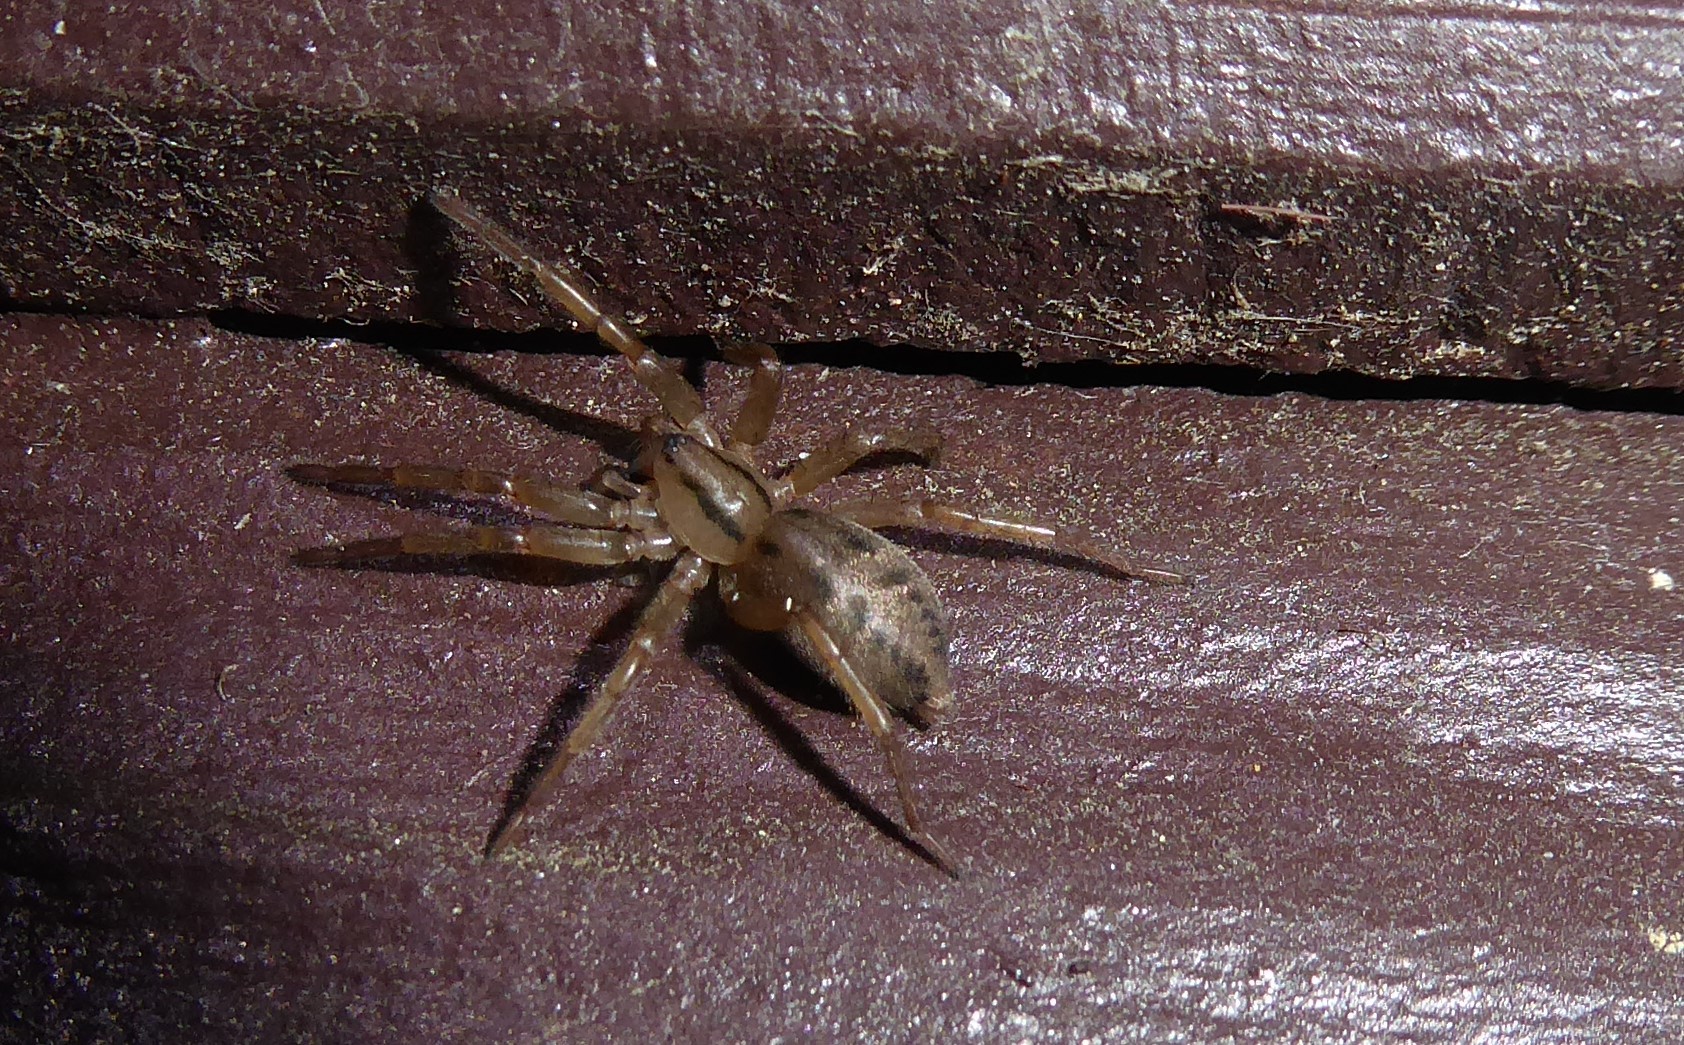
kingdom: Animalia
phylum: Arthropoda
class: Arachnida
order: Araneae
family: Gnaphosidae
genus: Notiodrassus
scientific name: Notiodrassus distinctus
